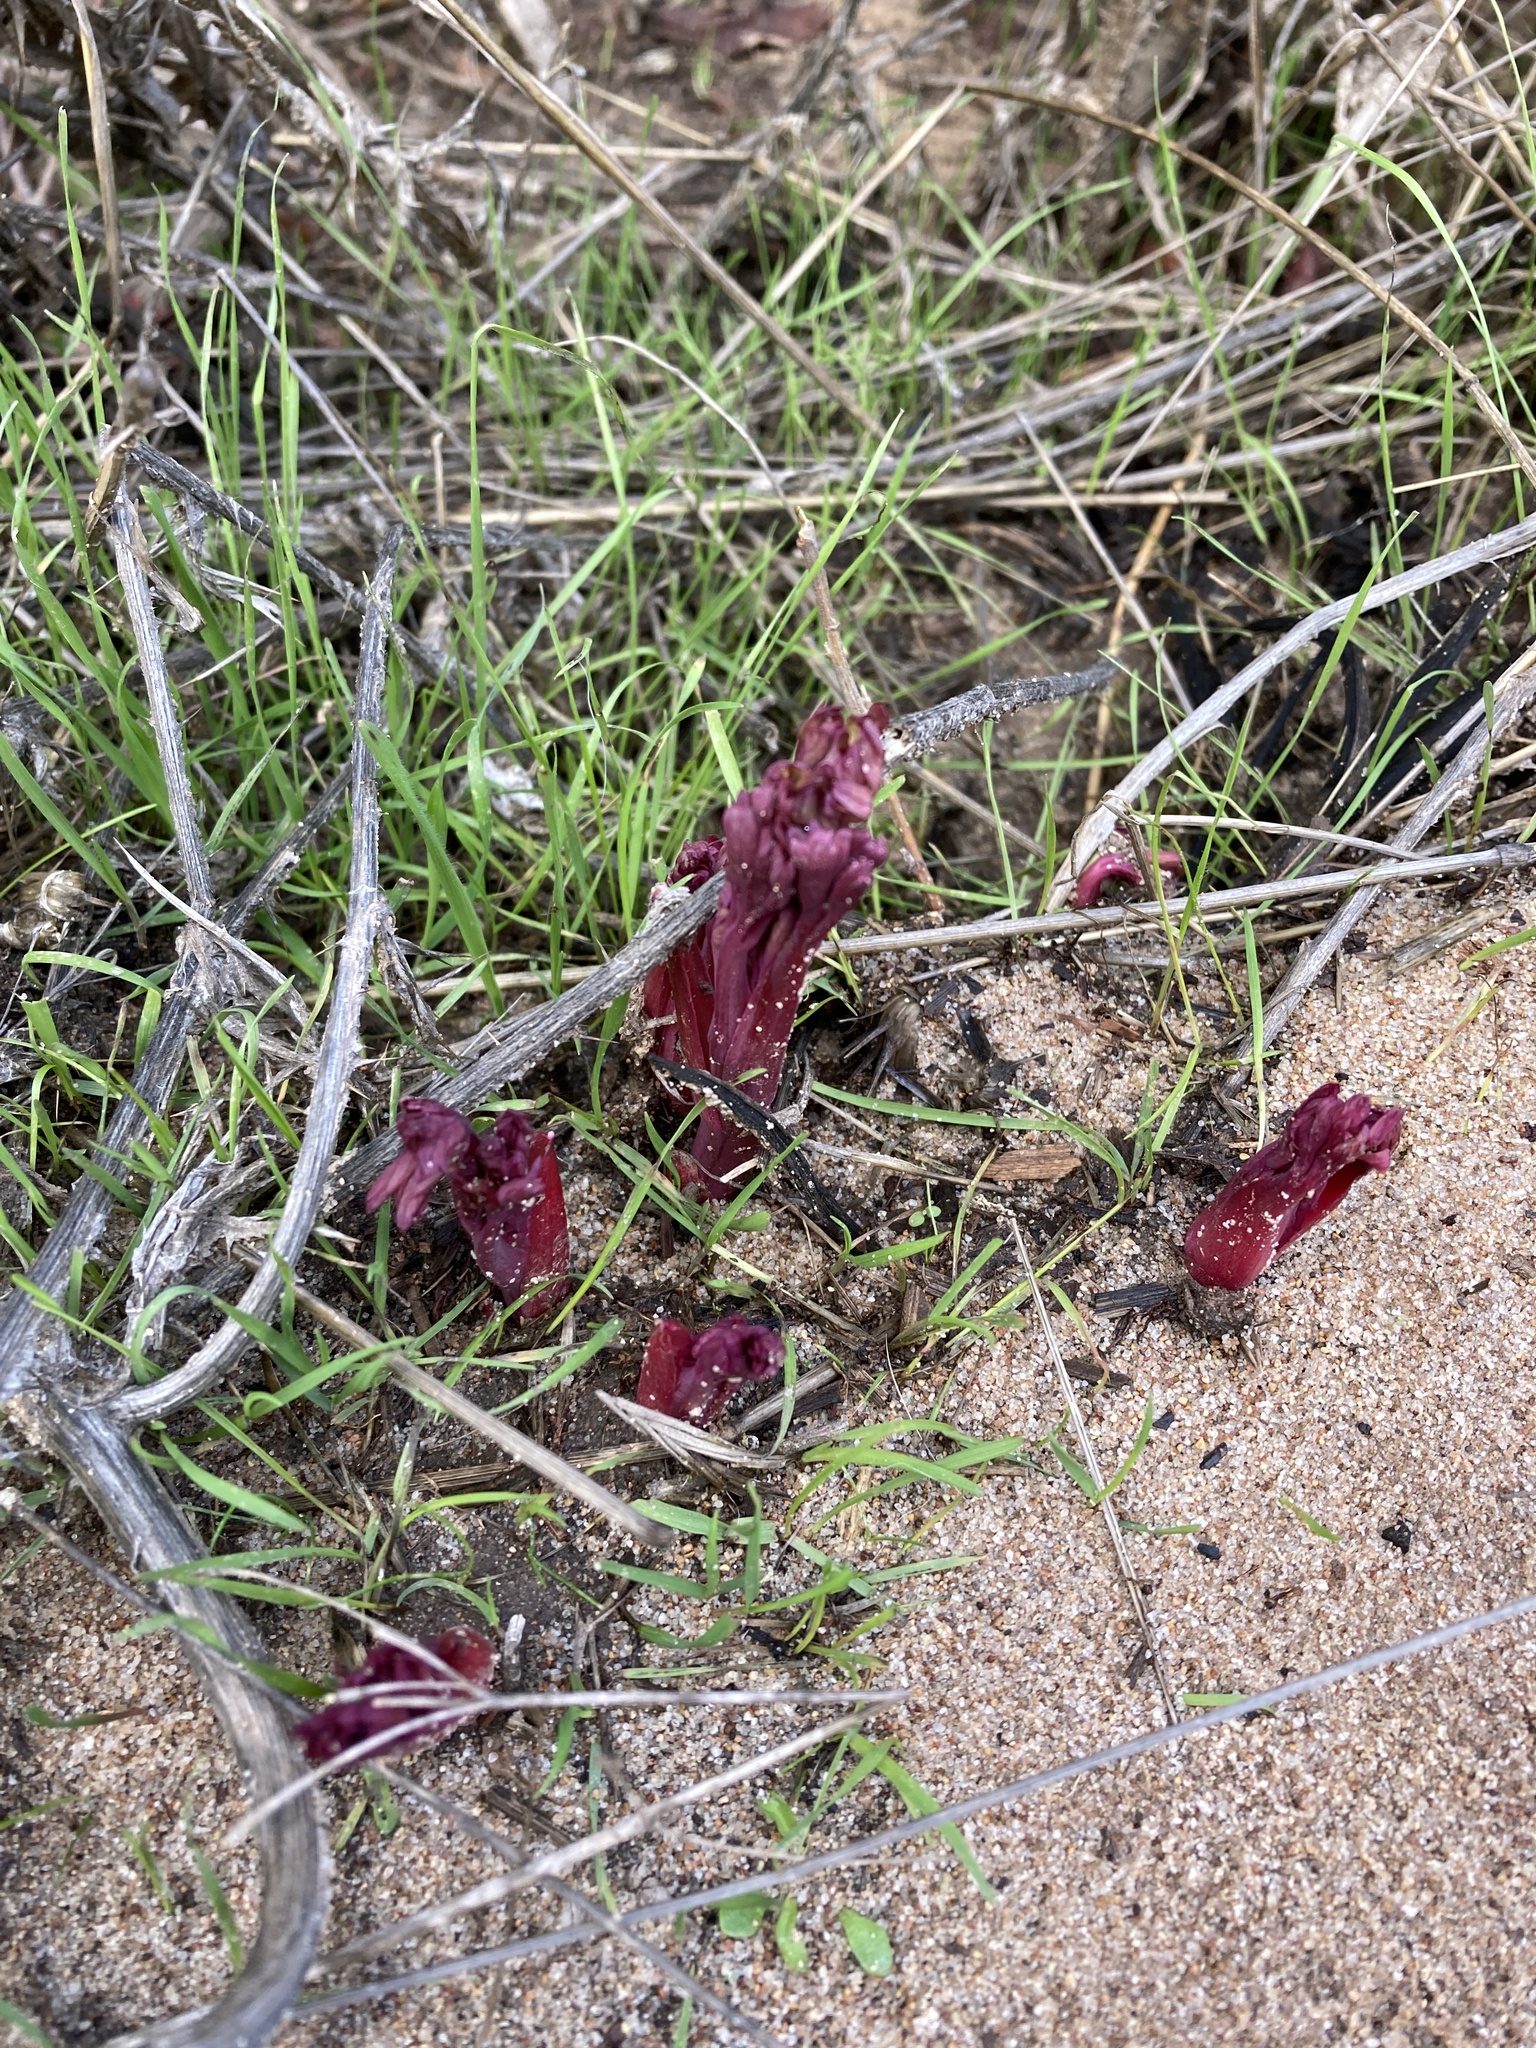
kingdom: Plantae
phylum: Tracheophyta
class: Magnoliopsida
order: Saxifragales
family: Paeoniaceae
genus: Paeonia
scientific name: Paeonia californica
